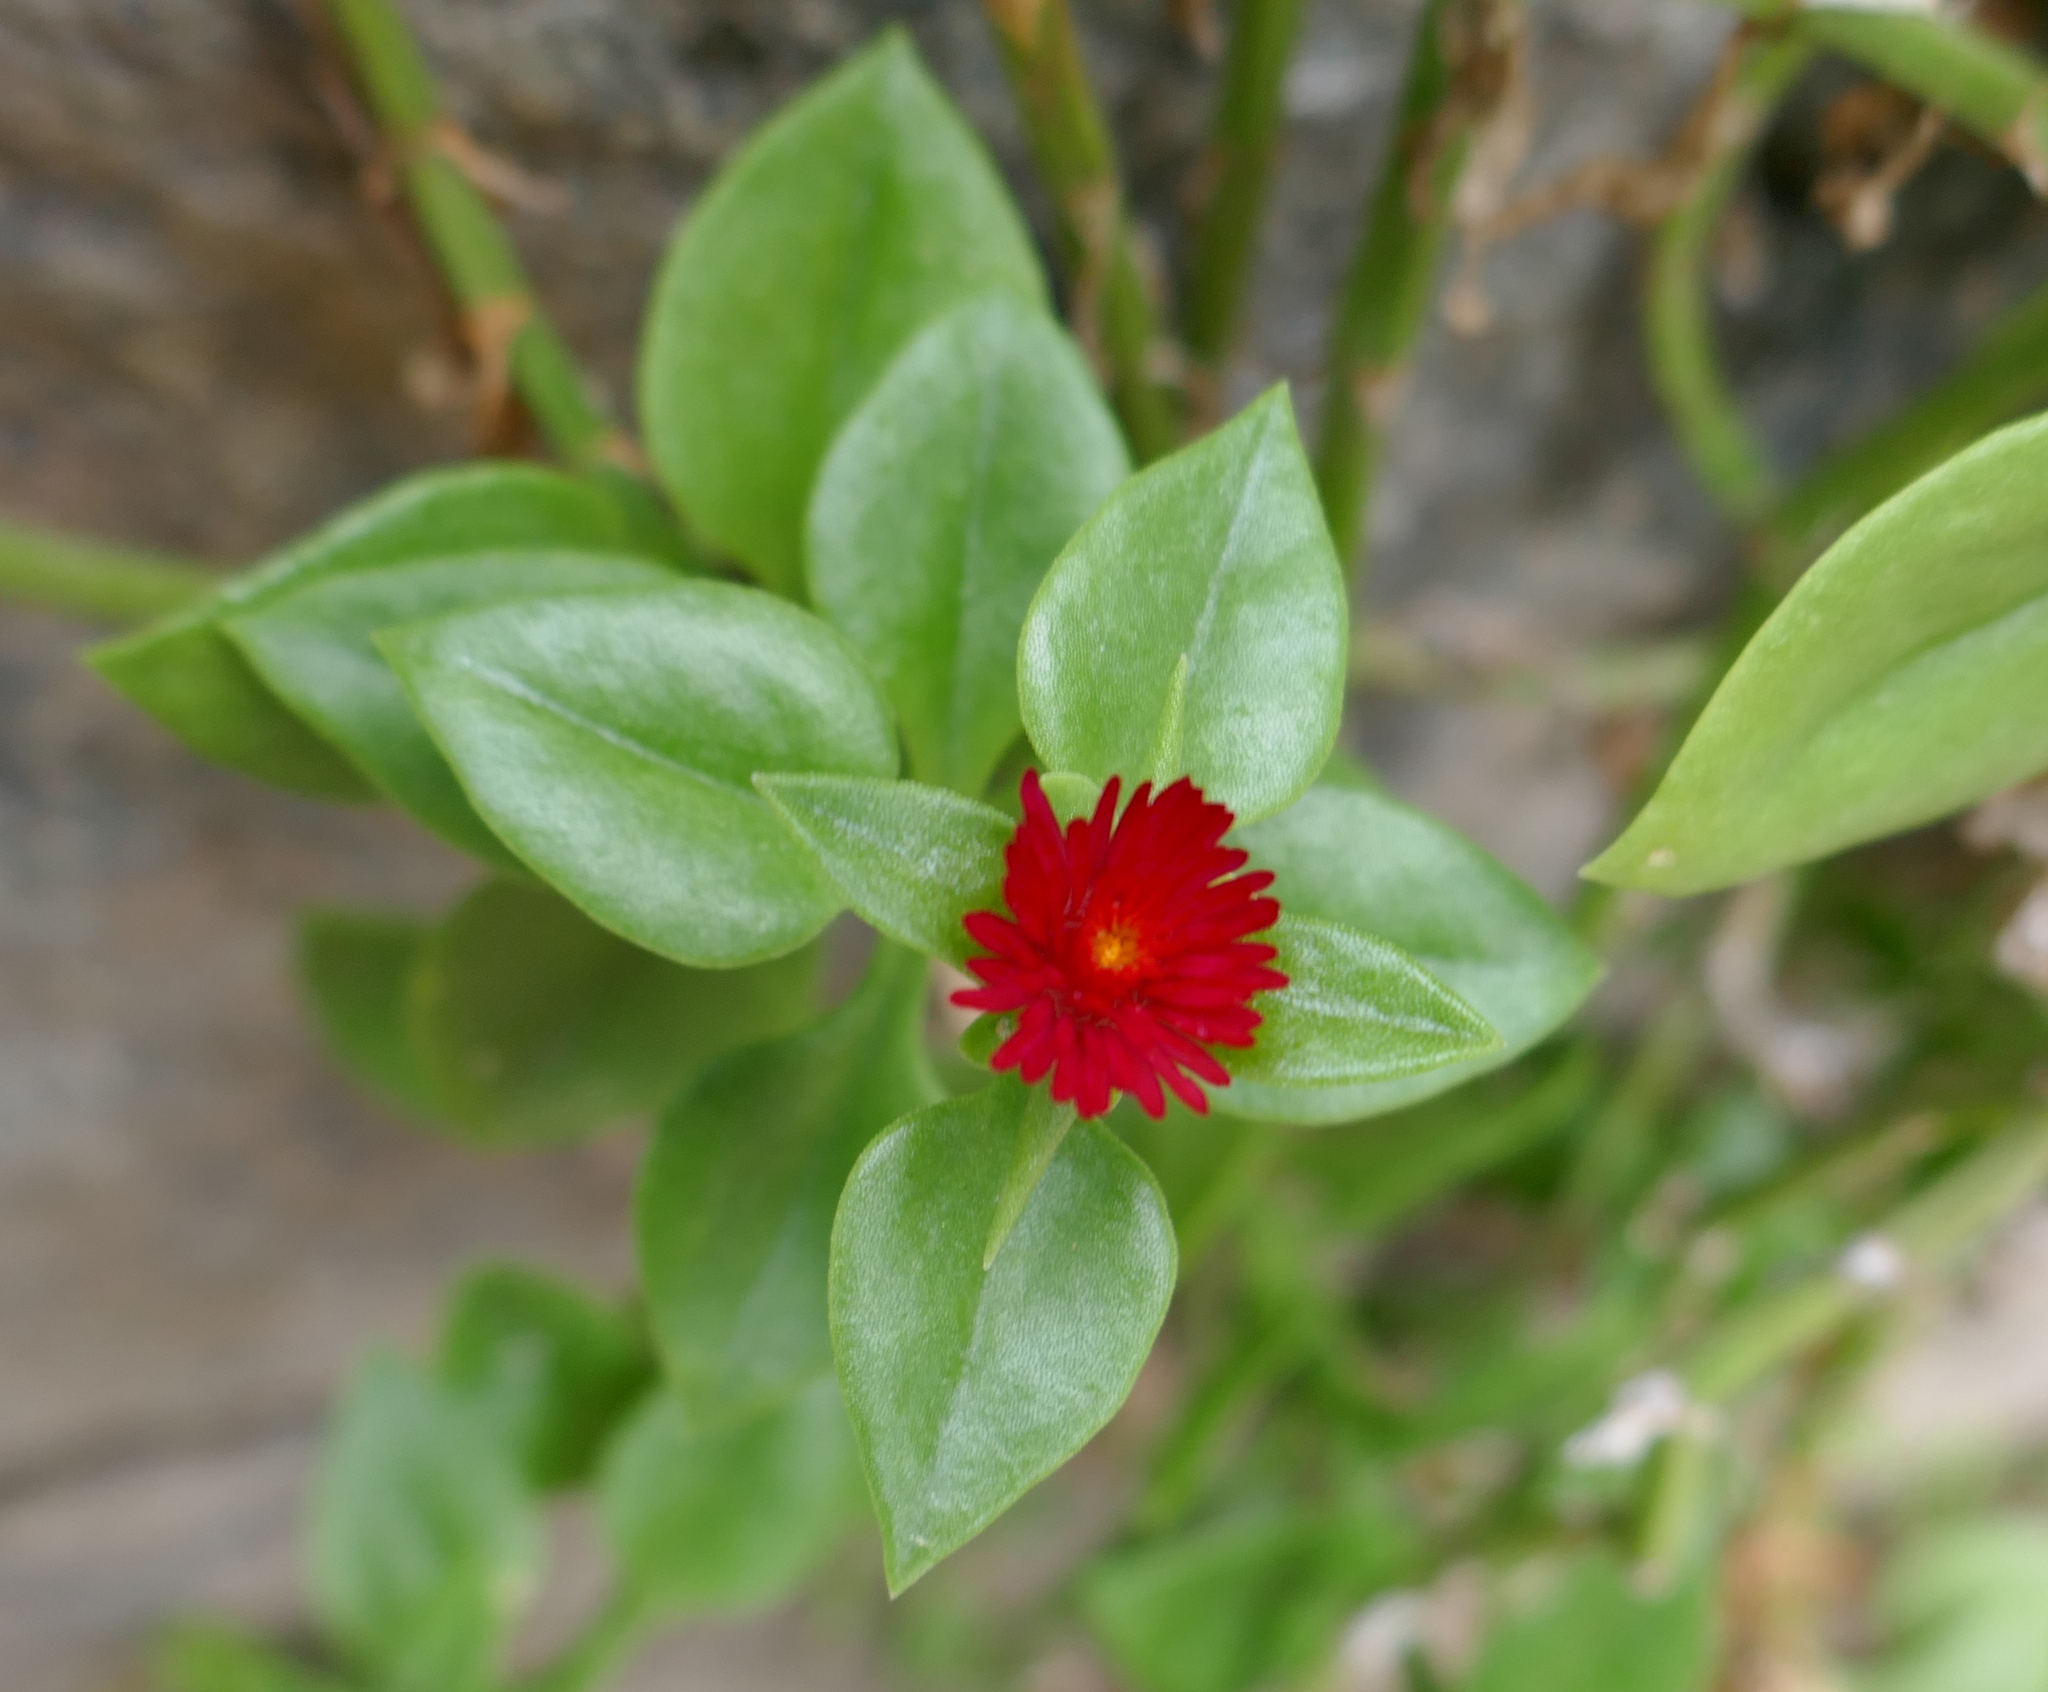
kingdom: Plantae
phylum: Tracheophyta
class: Magnoliopsida
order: Caryophyllales
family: Aizoaceae
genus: Mesembryanthemum
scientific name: Mesembryanthemum cordifolium
